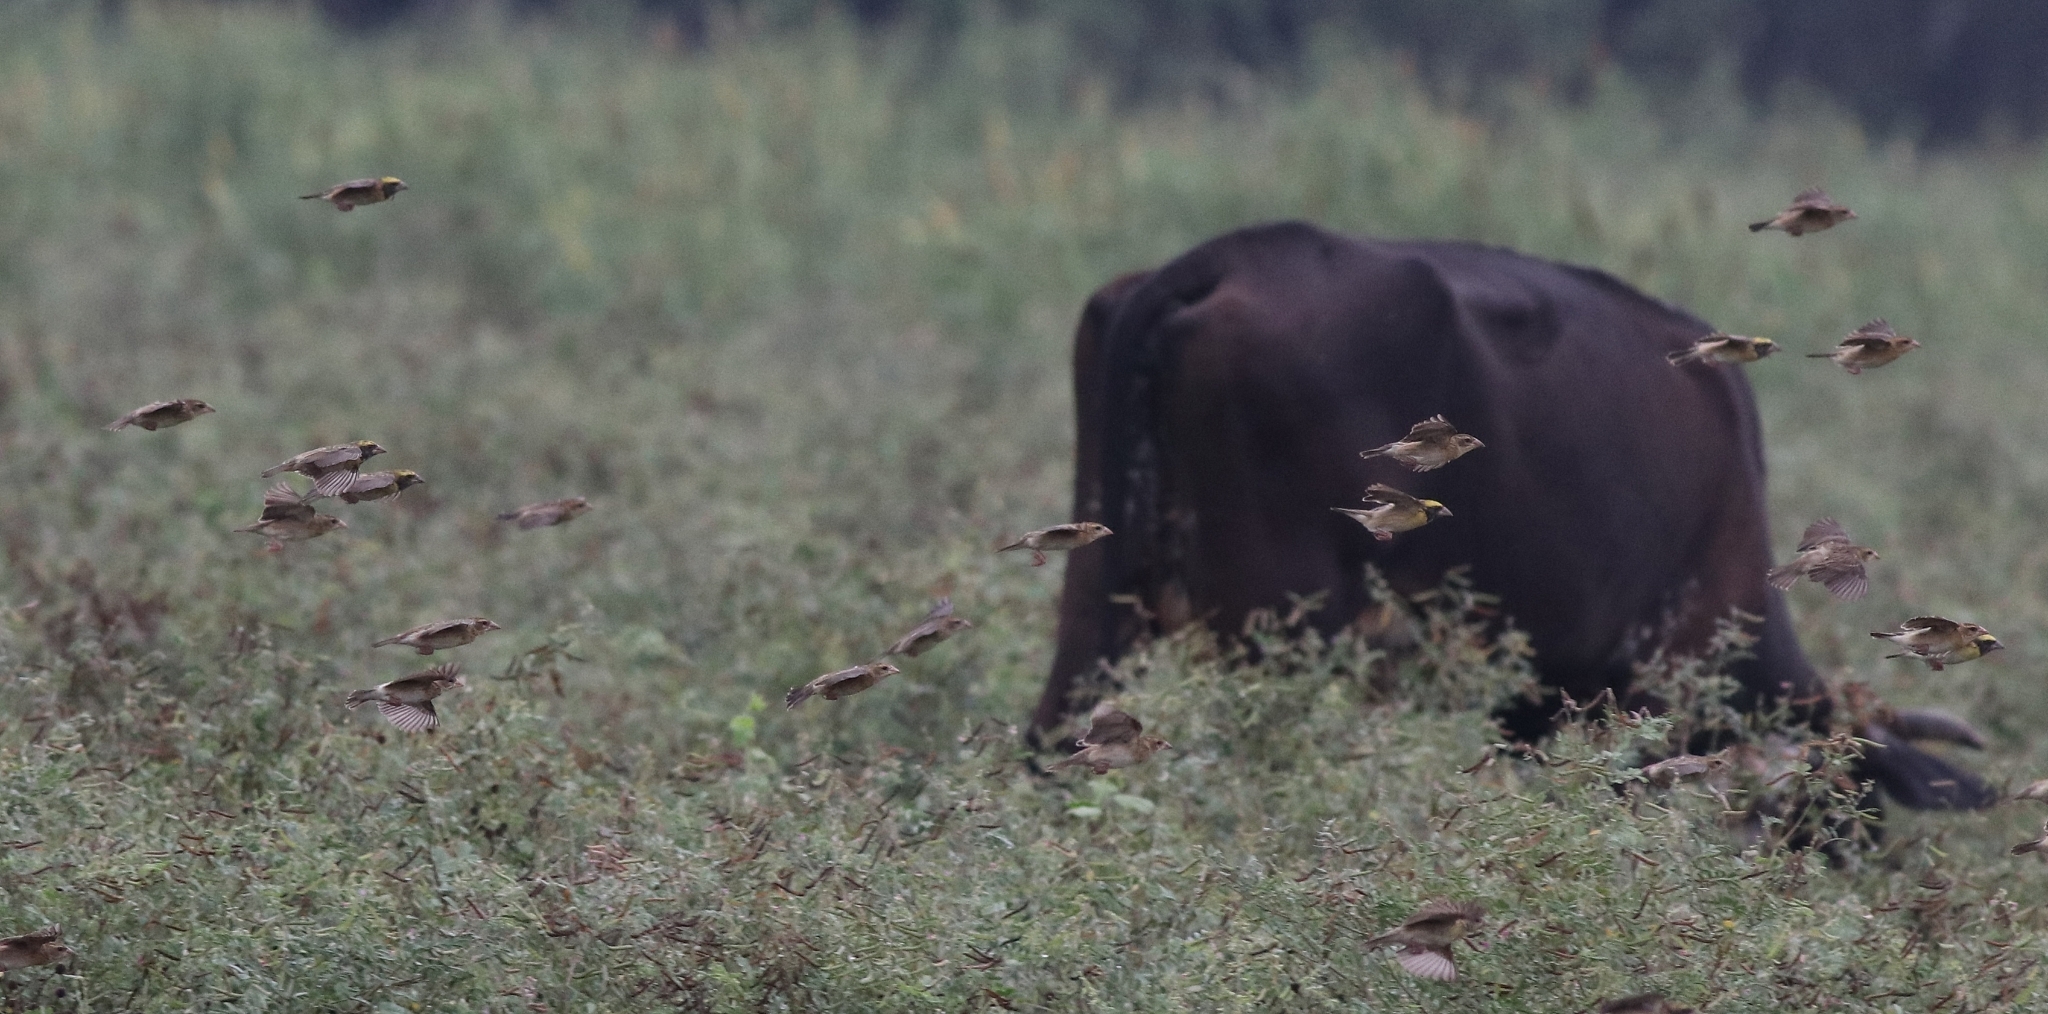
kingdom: Animalia
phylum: Chordata
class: Aves
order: Passeriformes
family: Ploceidae
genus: Ploceus
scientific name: Ploceus philippinus
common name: Baya weaver
